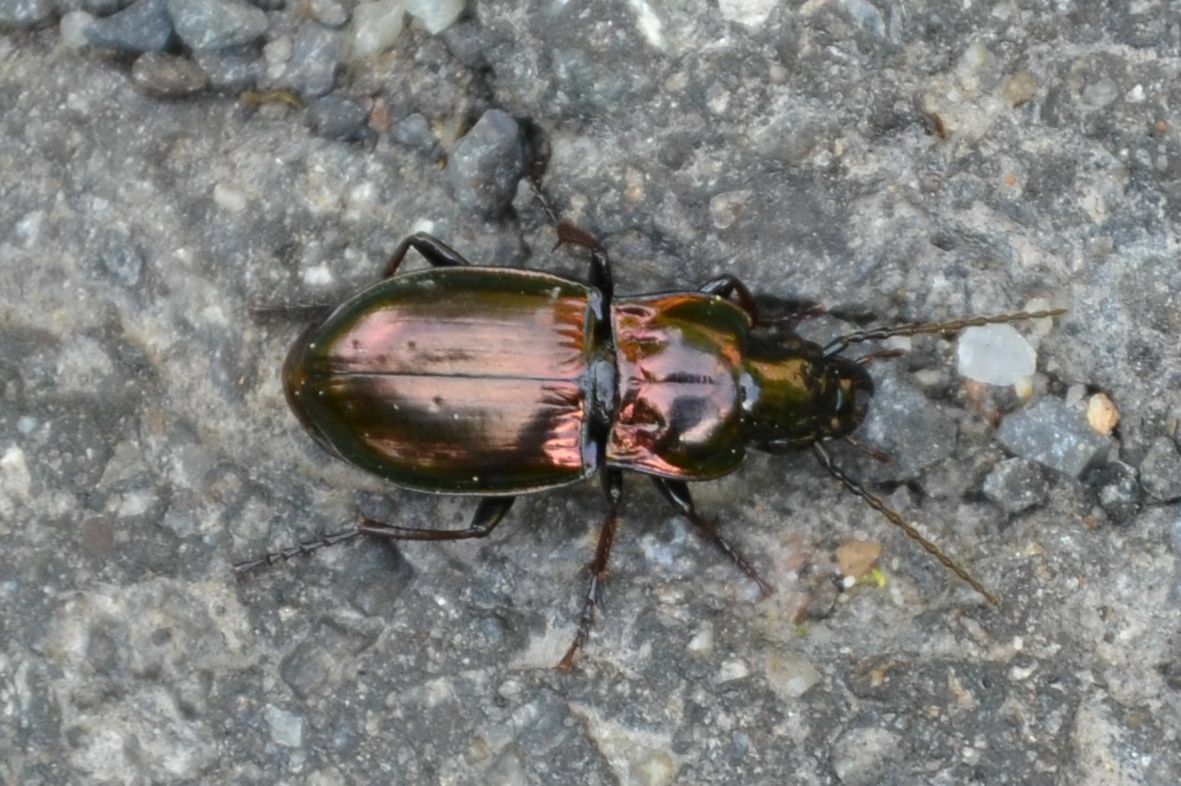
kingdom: Animalia
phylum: Arthropoda
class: Insecta
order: Coleoptera
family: Carabidae
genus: Pterostichus
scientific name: Pterostichus burmeisteri
